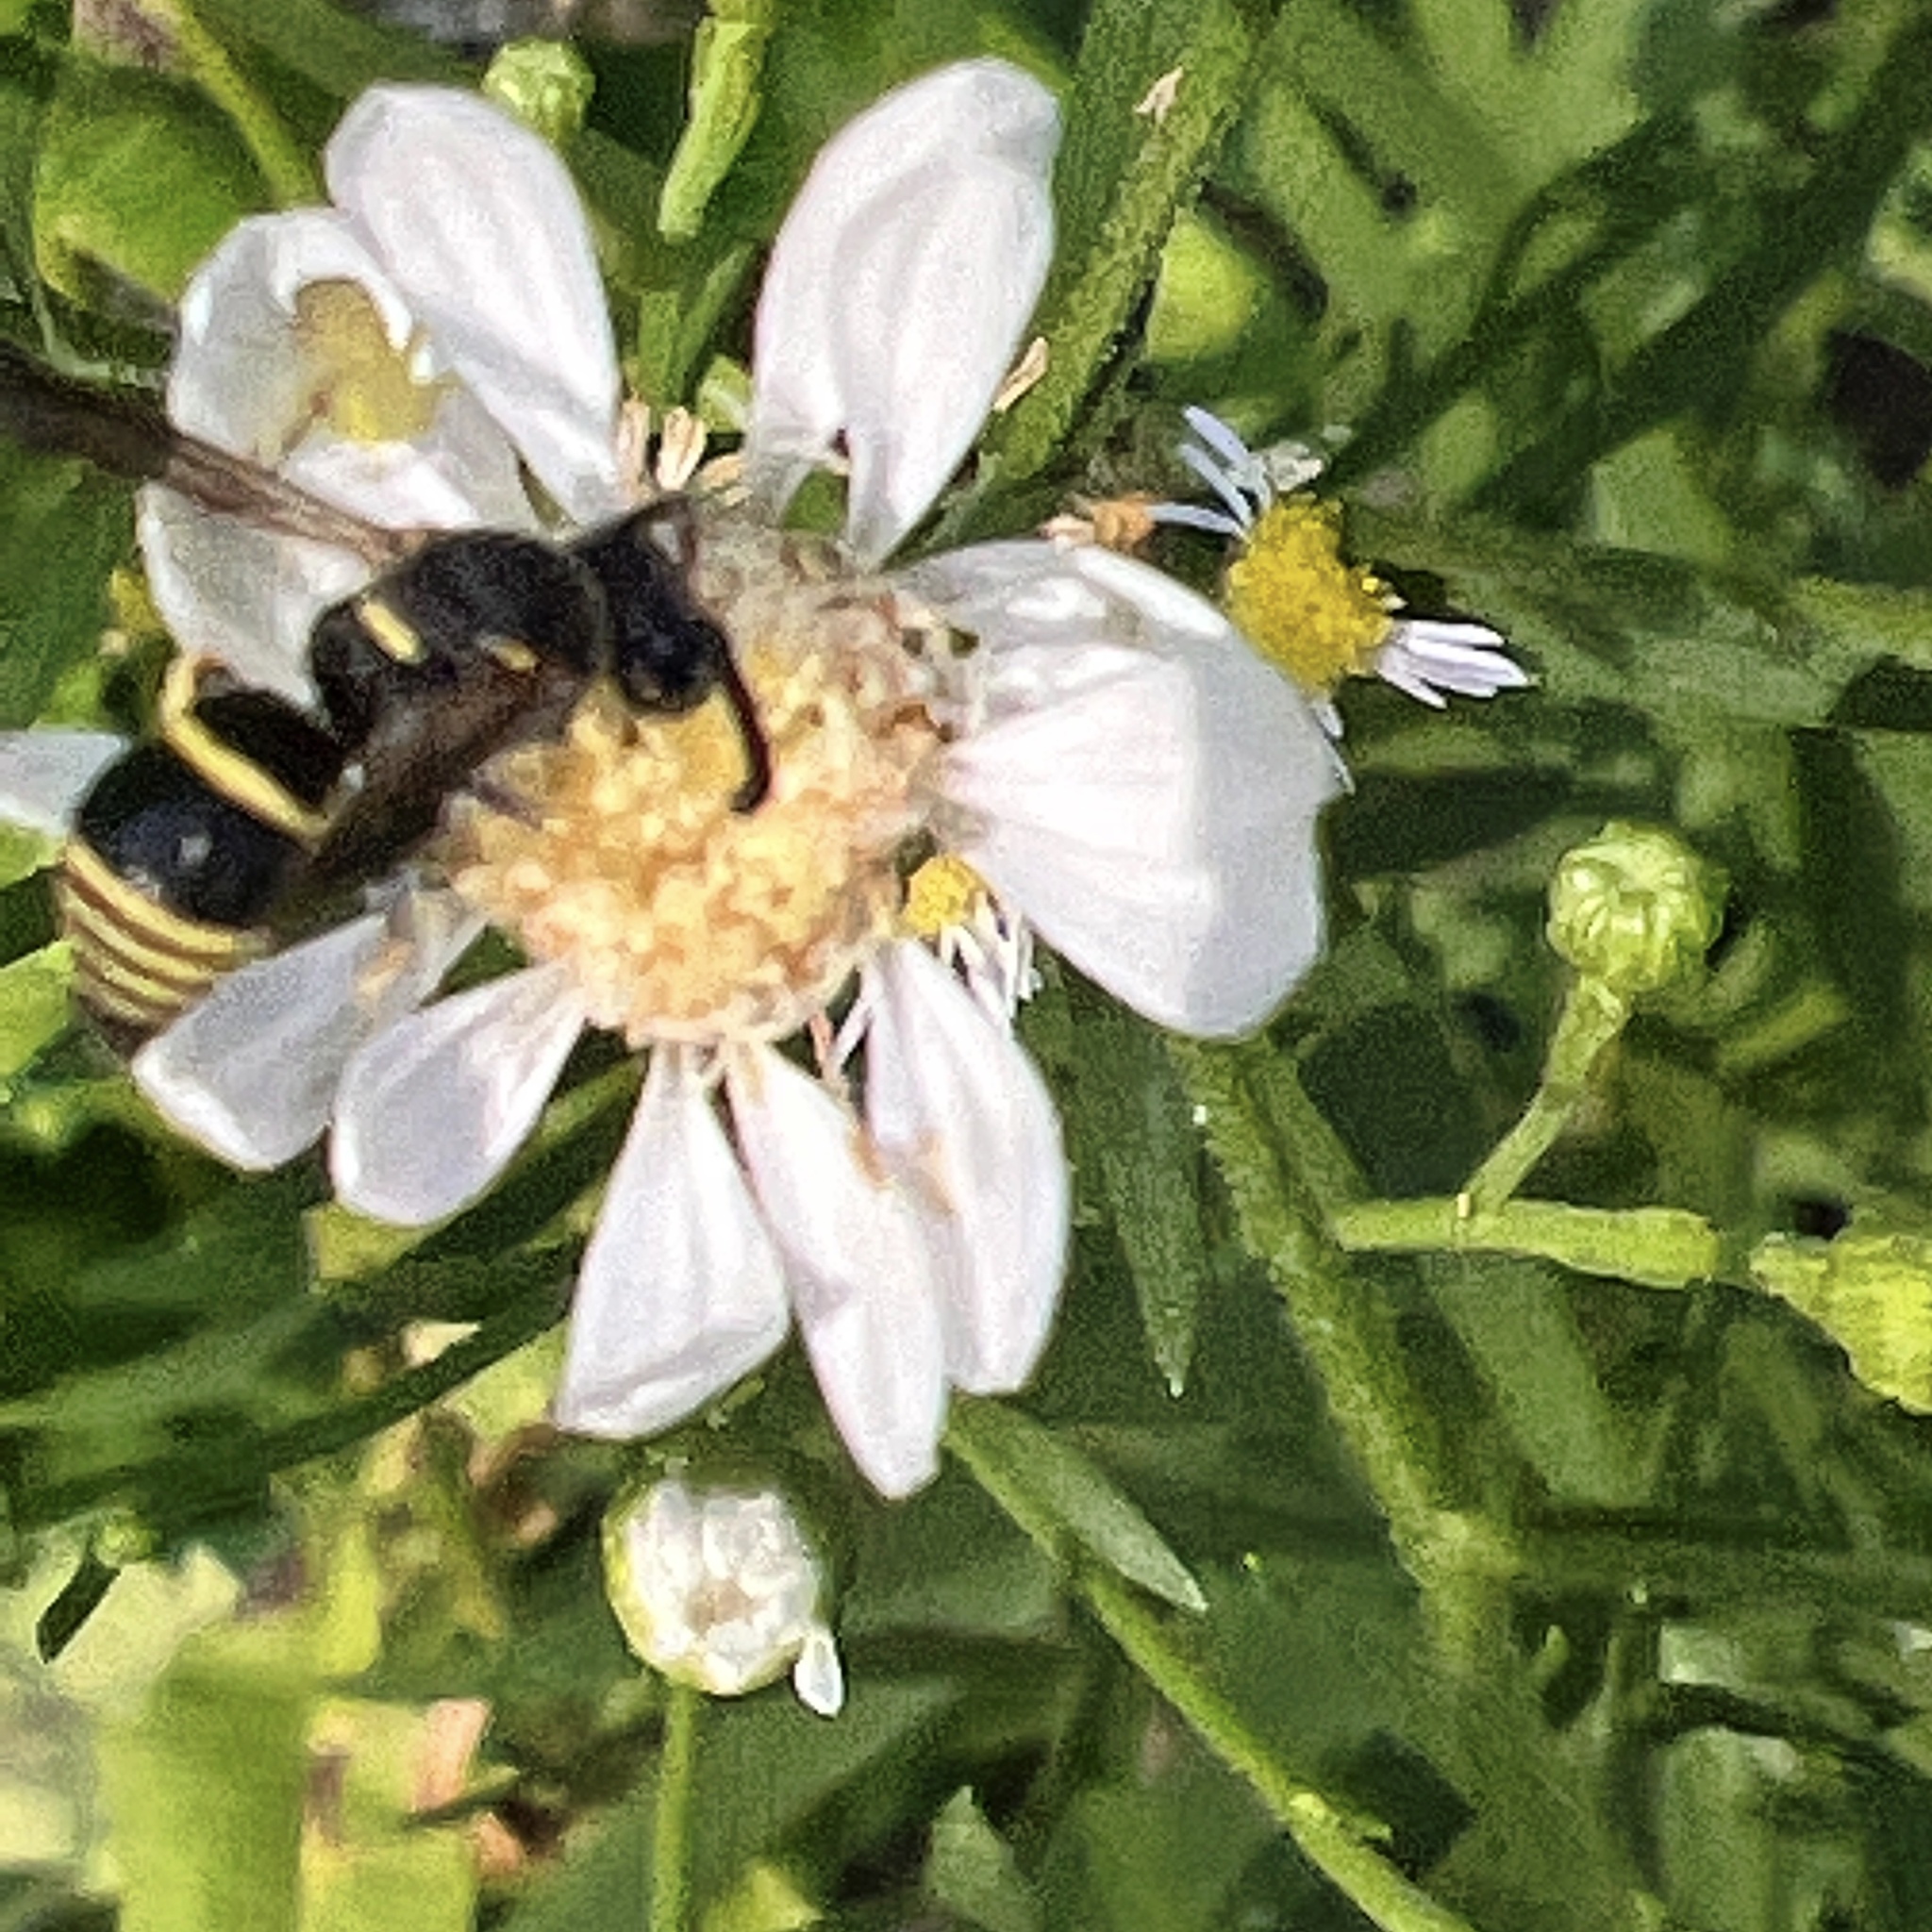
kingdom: Animalia
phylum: Arthropoda
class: Insecta
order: Hymenoptera
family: Eumenidae
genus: Euodynerus
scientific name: Euodynerus foraminatus
